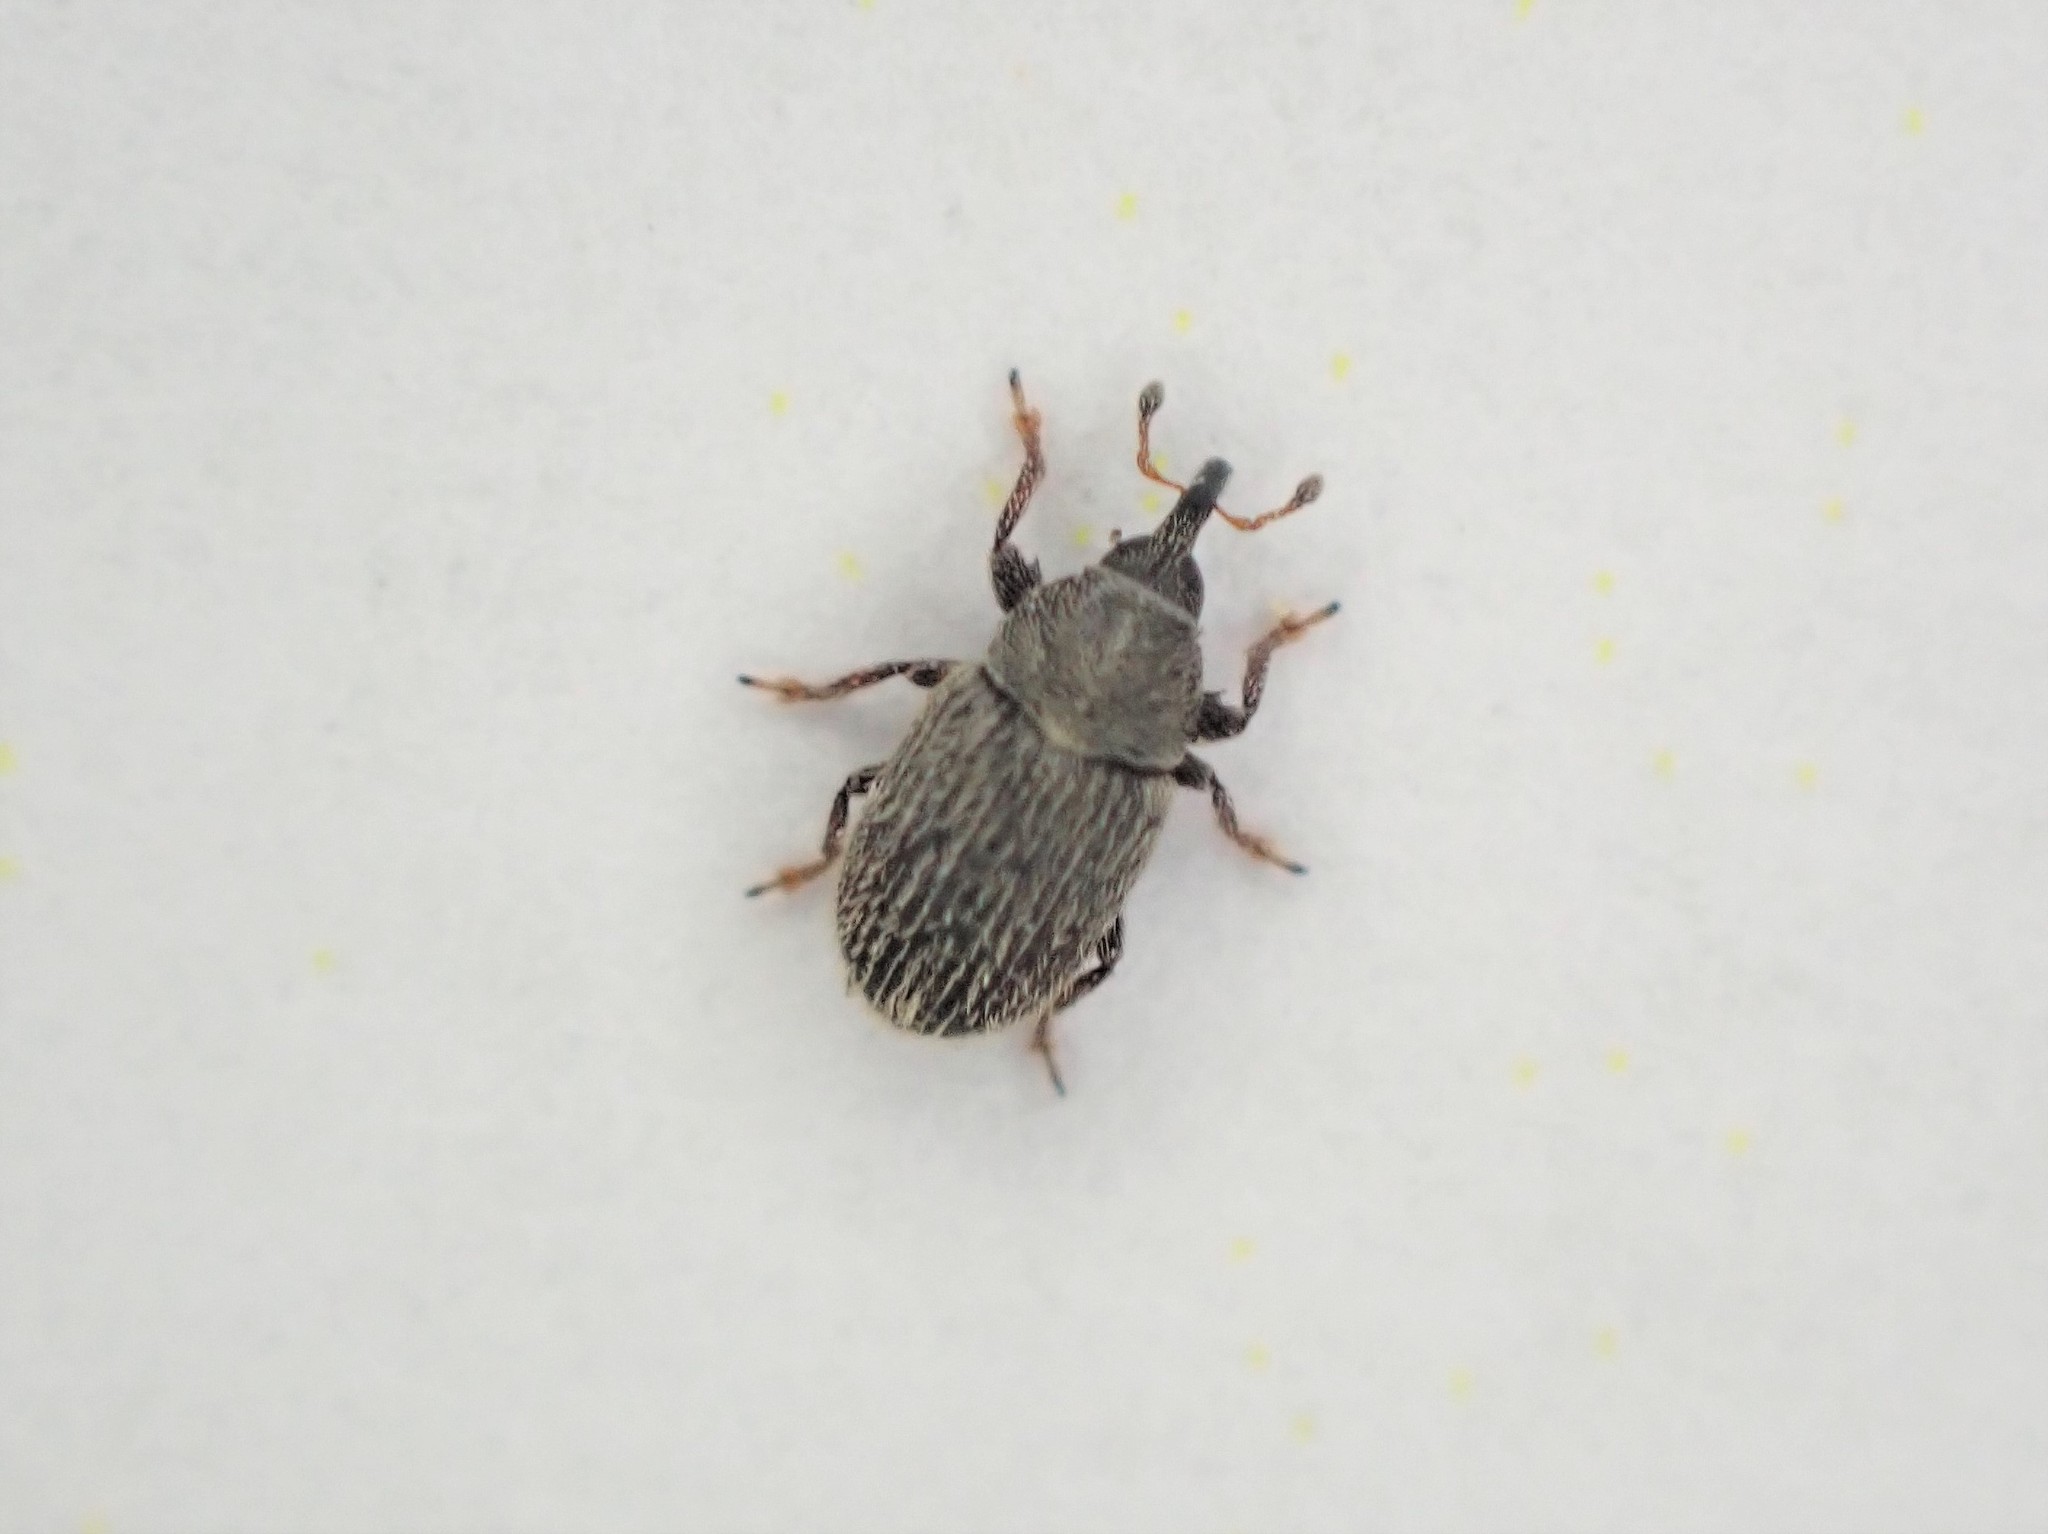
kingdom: Animalia
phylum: Arthropoda
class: Insecta
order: Coleoptera
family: Curculionidae
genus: Mecinus
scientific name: Mecinus pascuorum
